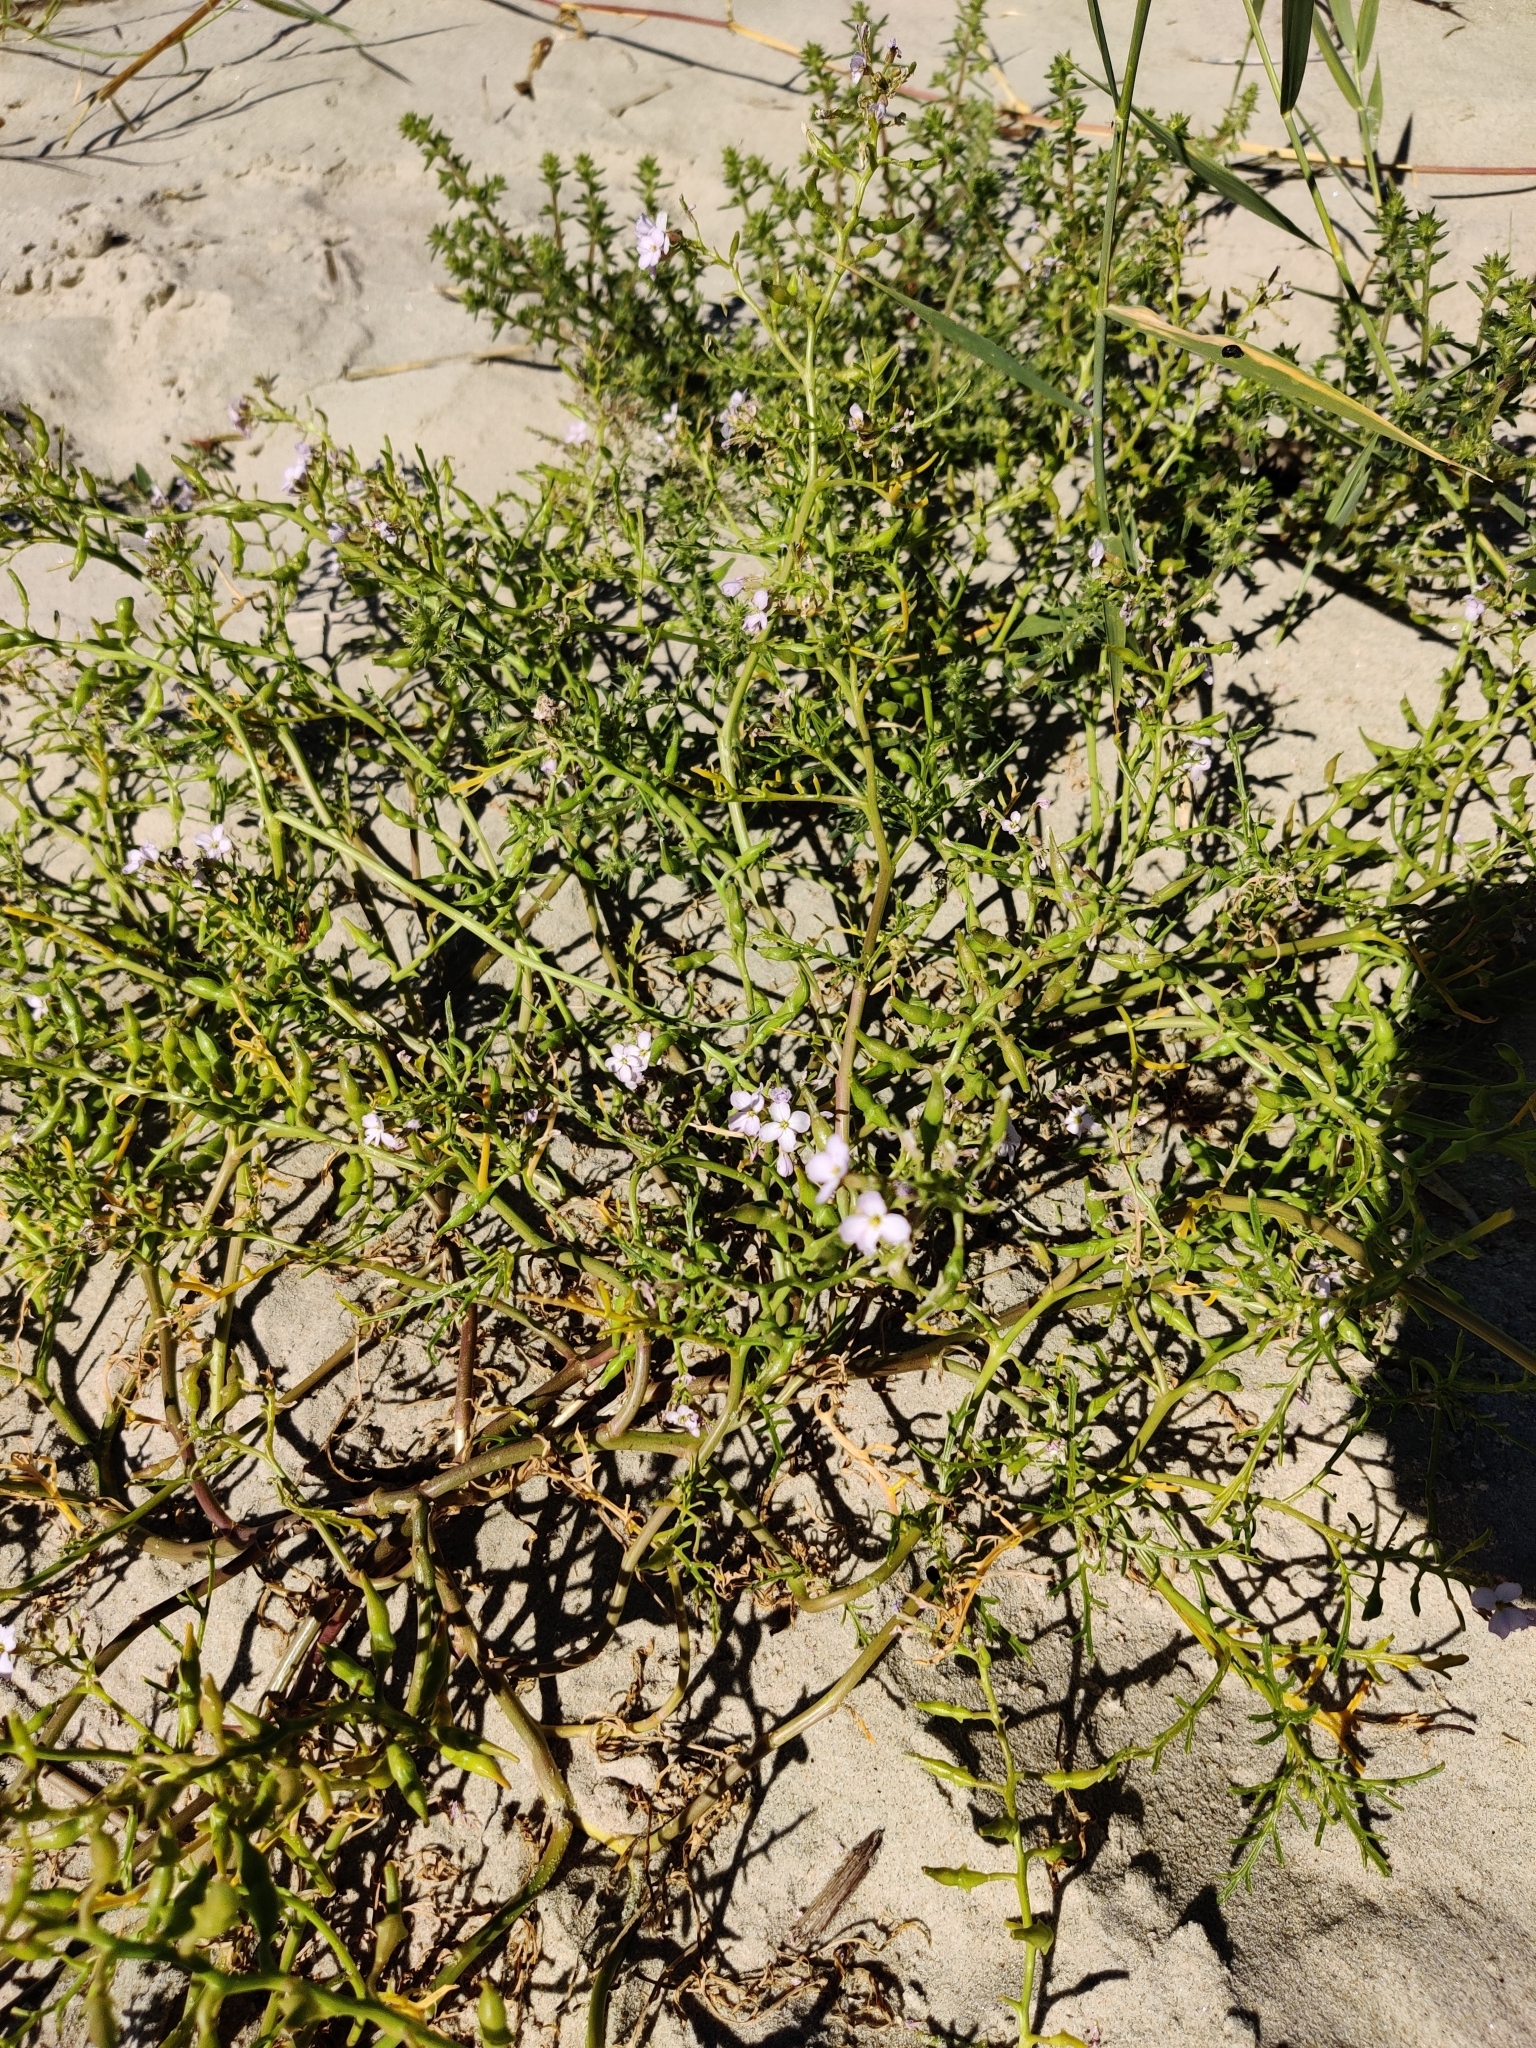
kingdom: Plantae
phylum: Tracheophyta
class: Magnoliopsida
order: Brassicales
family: Brassicaceae
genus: Cakile
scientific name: Cakile maritima
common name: Sea rocket
